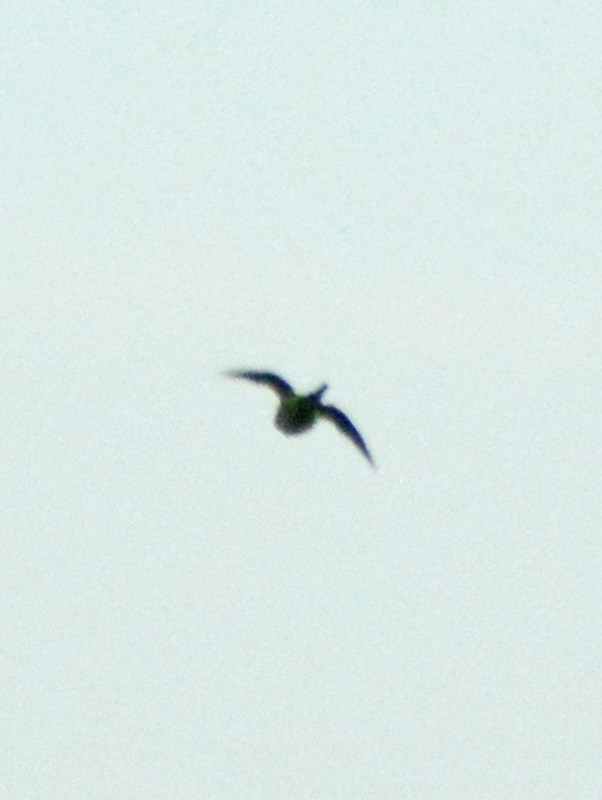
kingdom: Animalia
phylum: Chordata
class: Aves
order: Psittaciformes
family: Psittacidae
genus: Myiopsitta
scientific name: Myiopsitta monachus
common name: Monk parakeet
